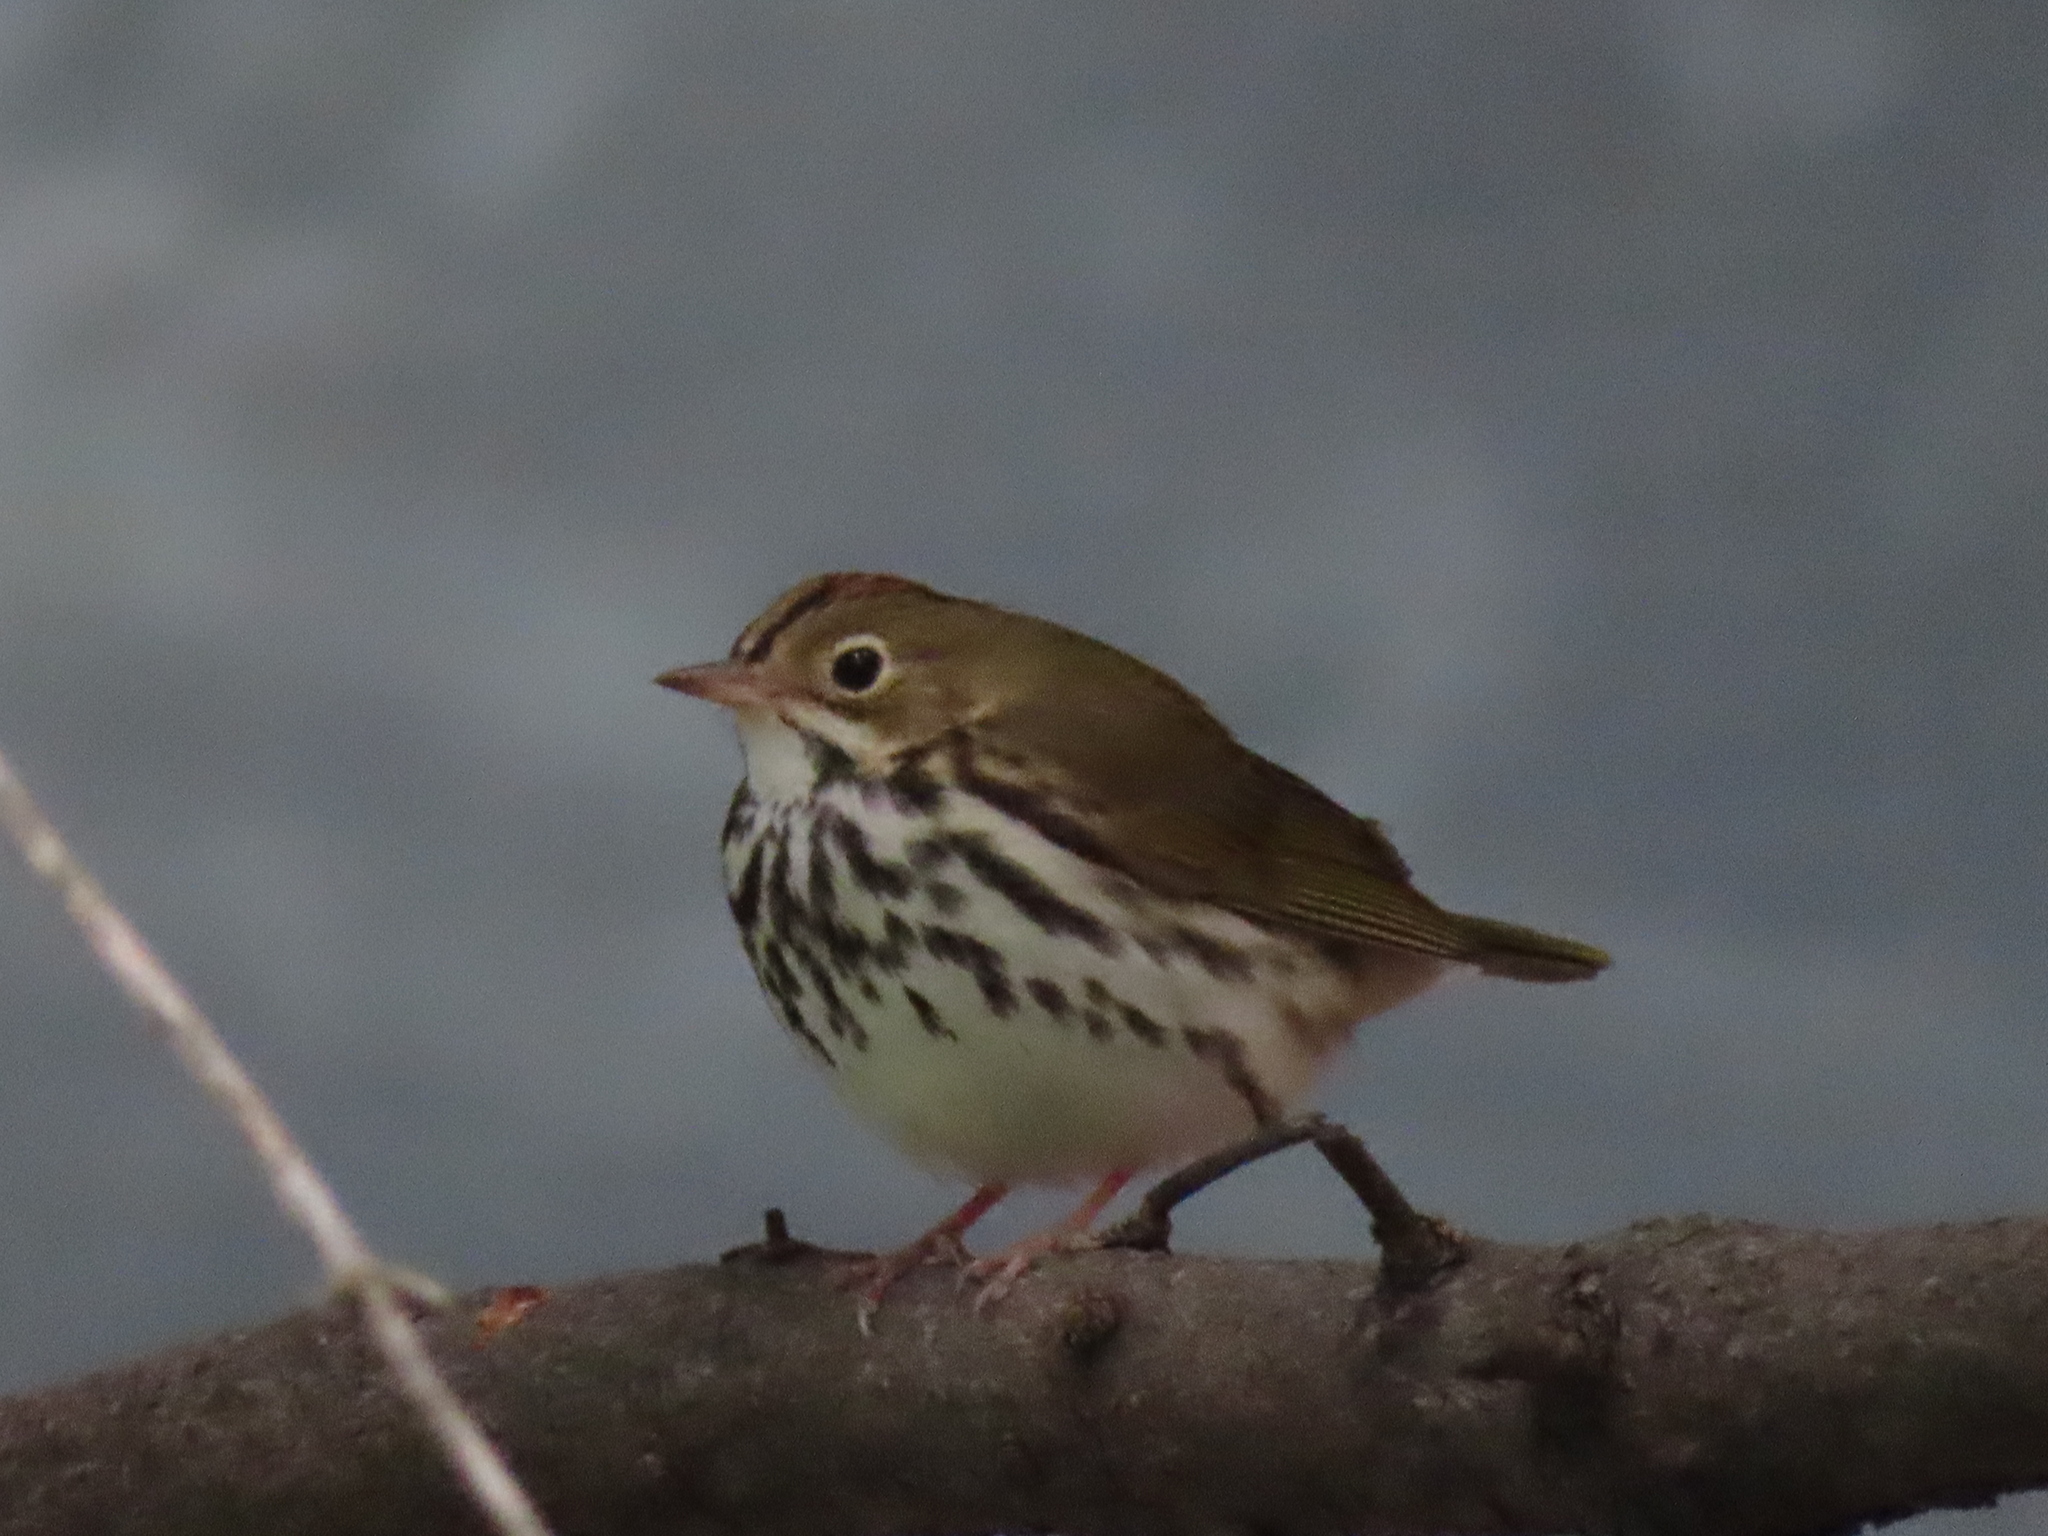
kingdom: Animalia
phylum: Chordata
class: Aves
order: Passeriformes
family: Parulidae
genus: Seiurus
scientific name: Seiurus aurocapilla
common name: Ovenbird
